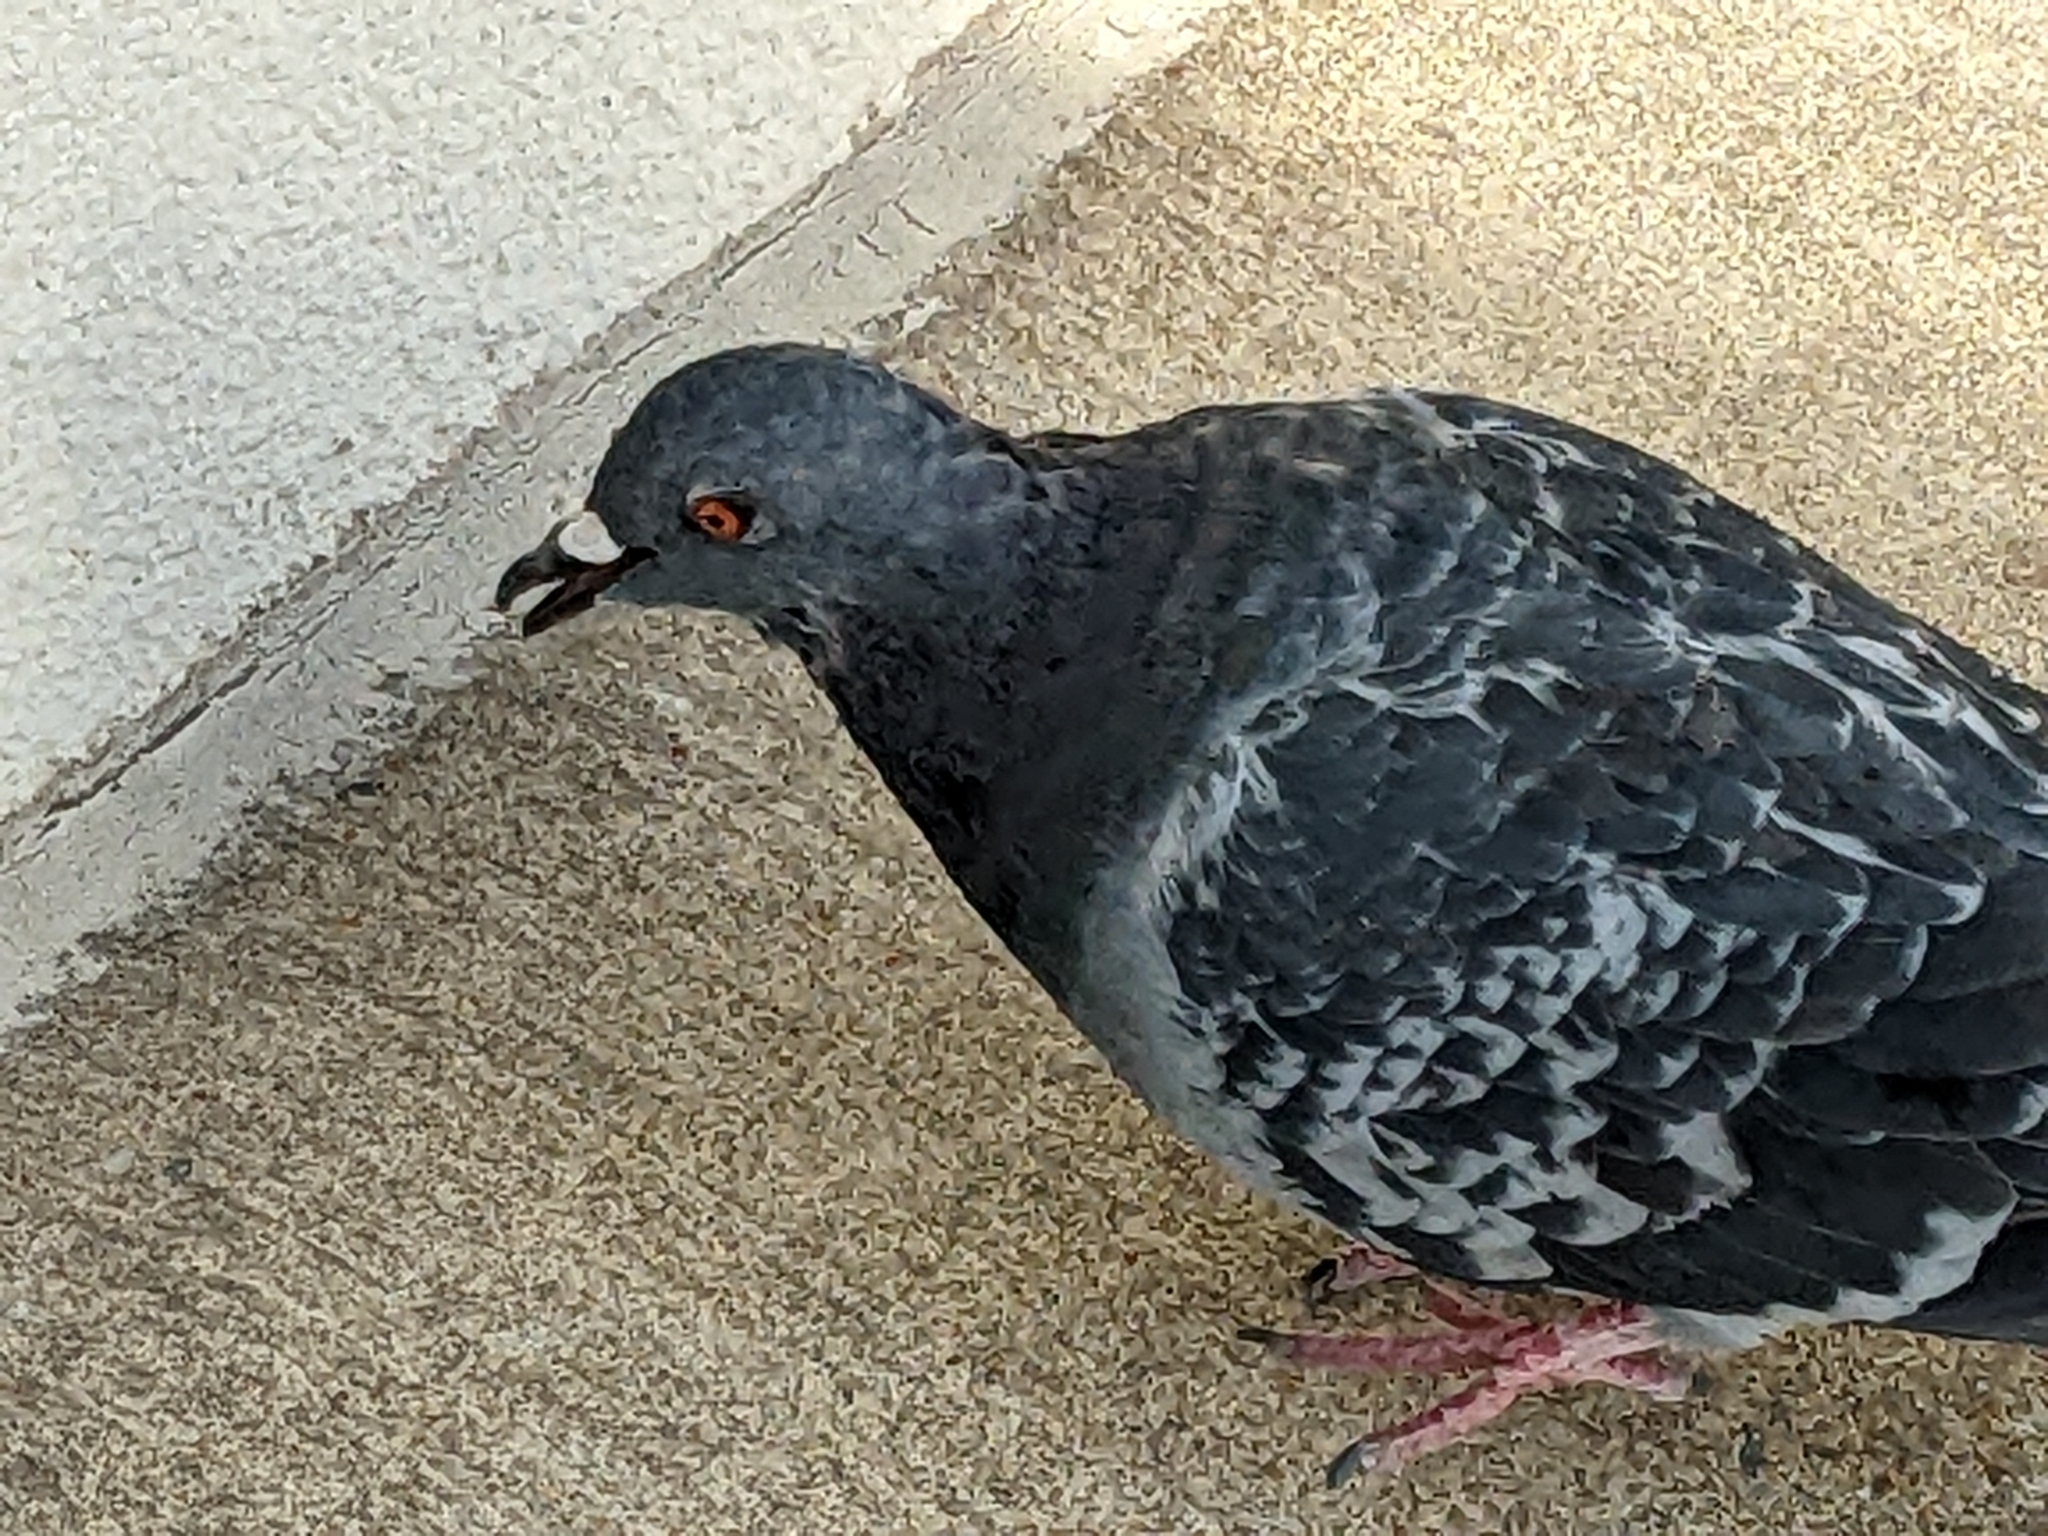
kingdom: Animalia
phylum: Chordata
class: Aves
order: Columbiformes
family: Columbidae
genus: Columba
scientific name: Columba livia
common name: Rock pigeon
